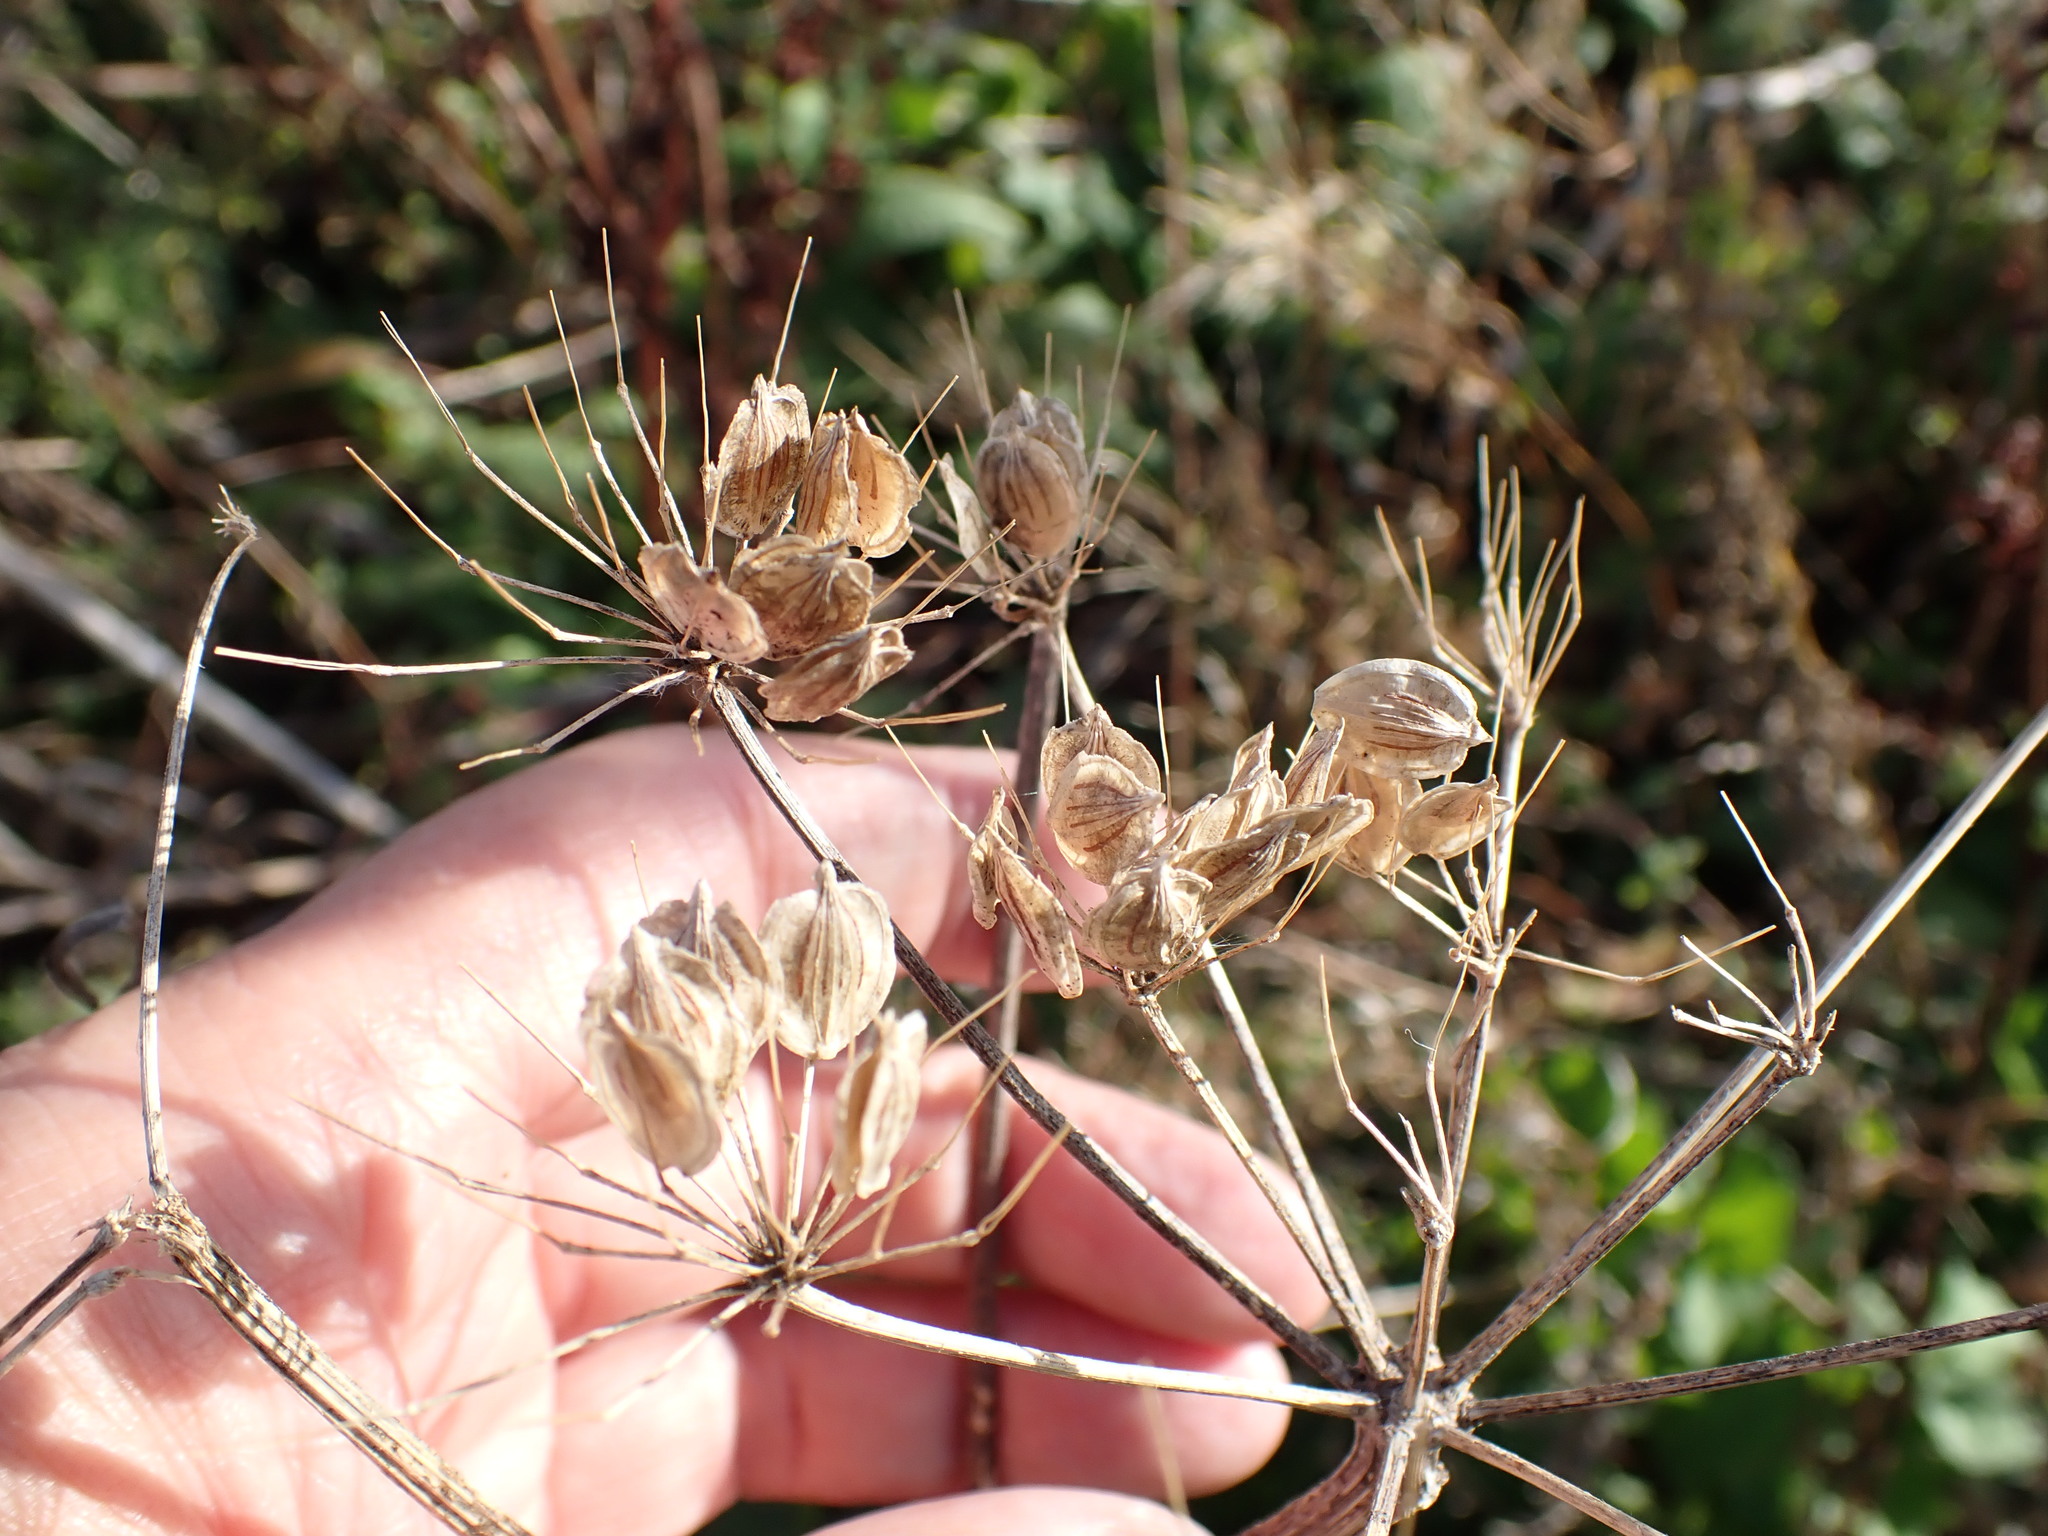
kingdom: Plantae
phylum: Tracheophyta
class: Magnoliopsida
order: Apiales
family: Apiaceae
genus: Heracleum
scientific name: Heracleum sphondylium
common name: Hogweed
